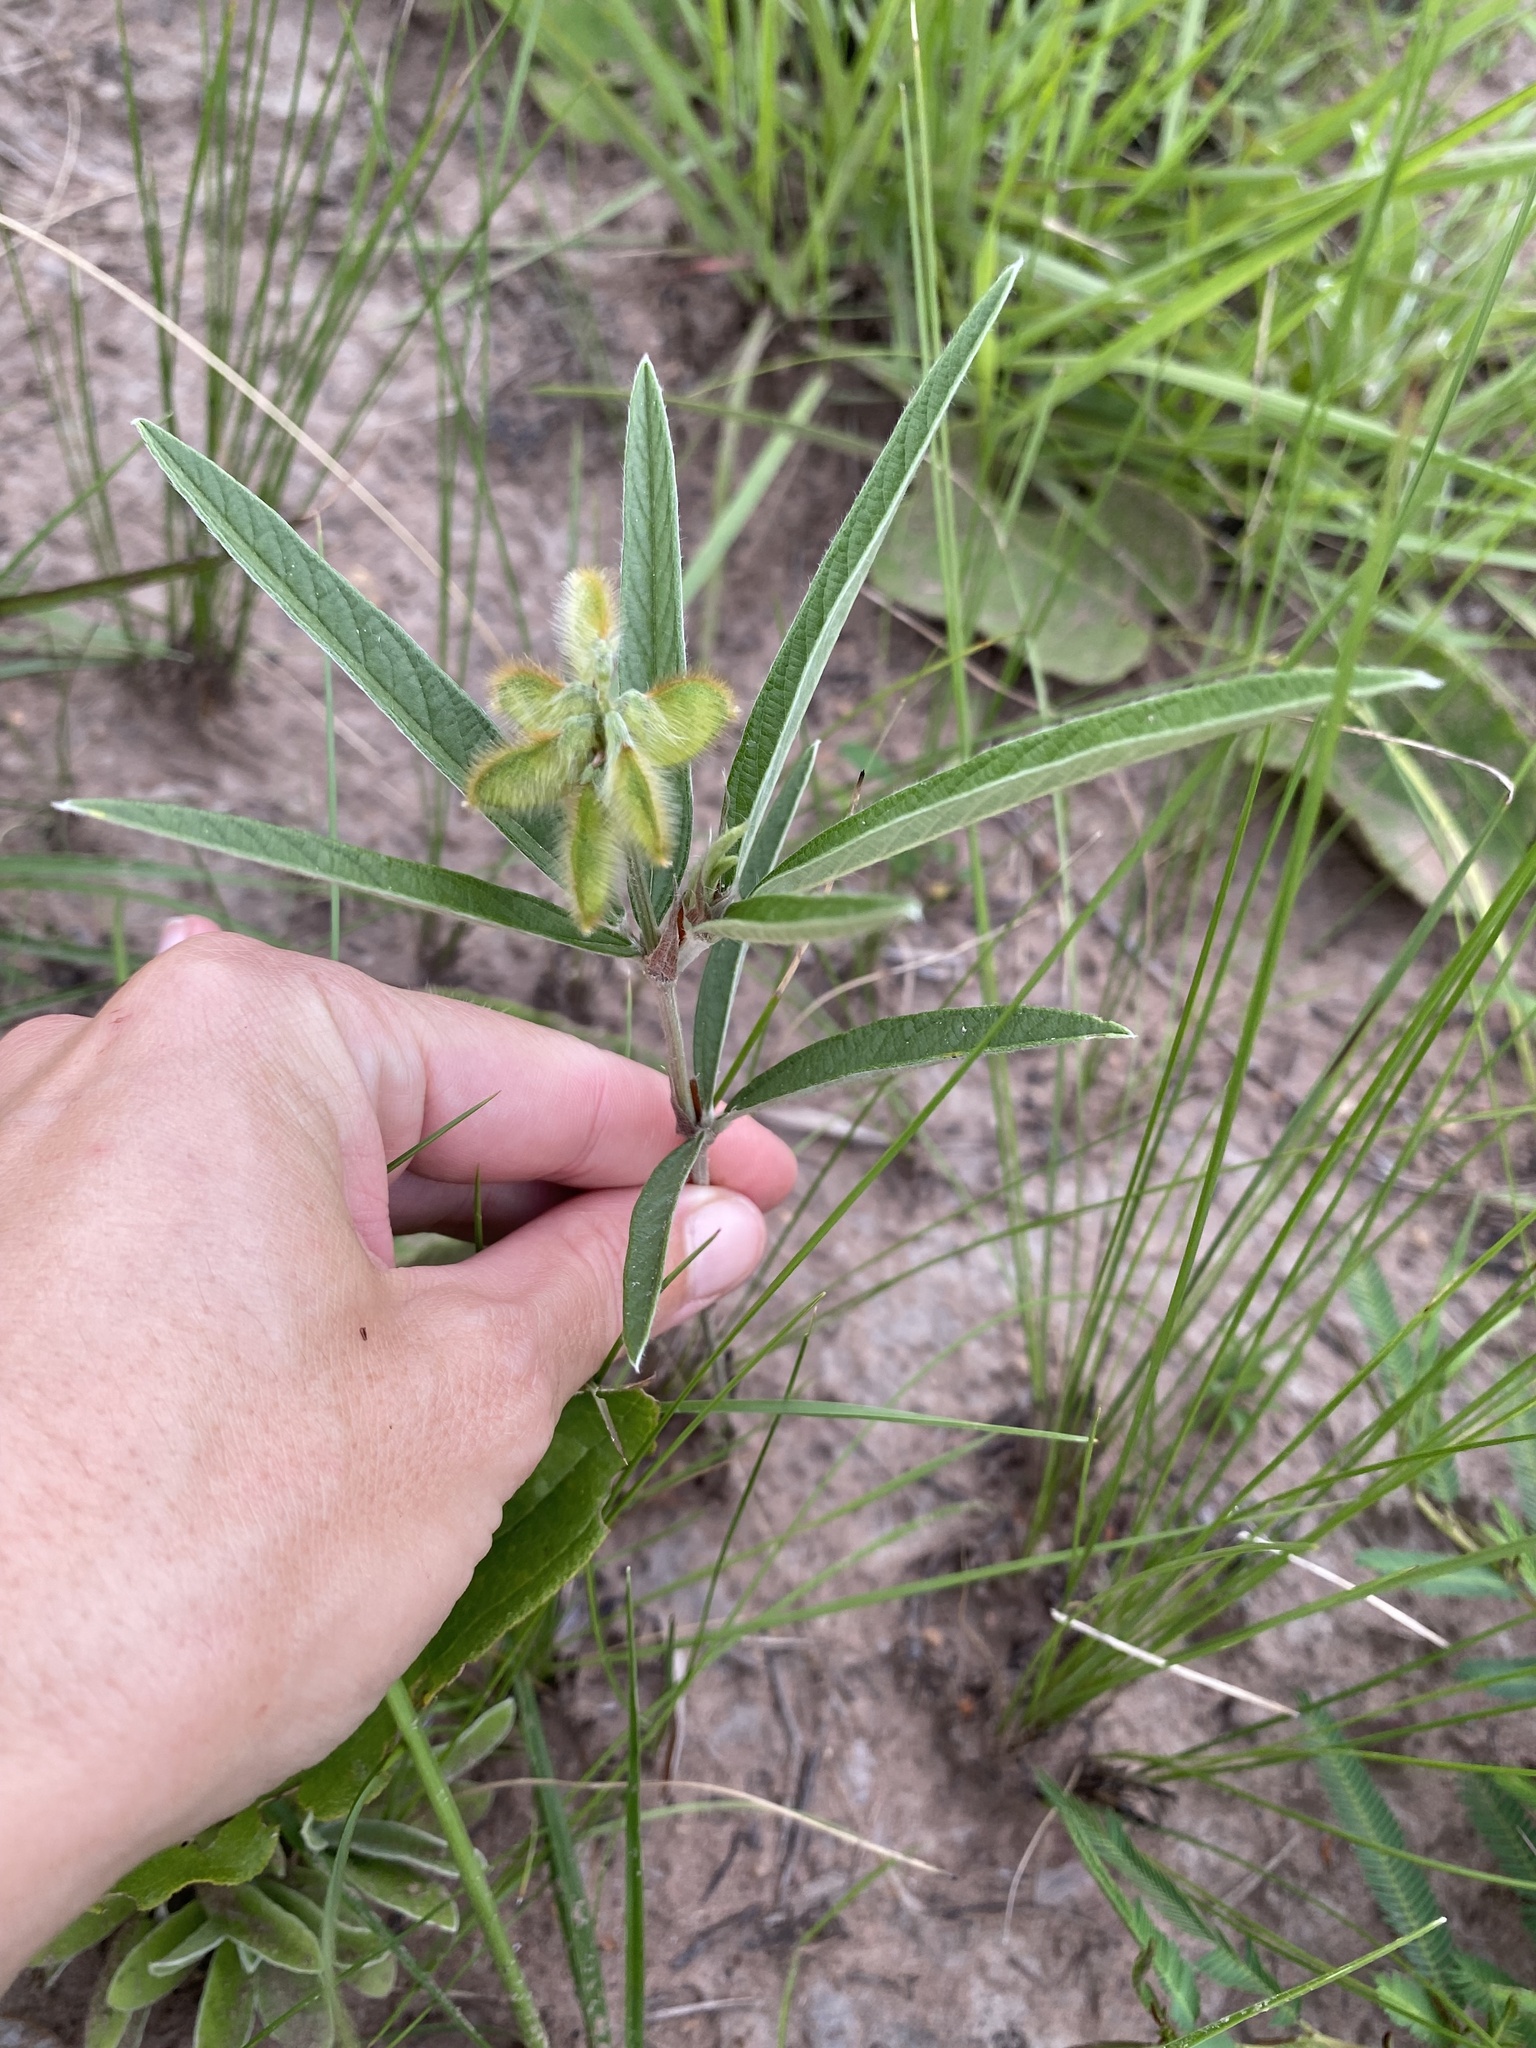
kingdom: Plantae
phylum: Tracheophyta
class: Magnoliopsida
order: Fabales
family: Fabaceae
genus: Eriosema
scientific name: Eriosema salignum
